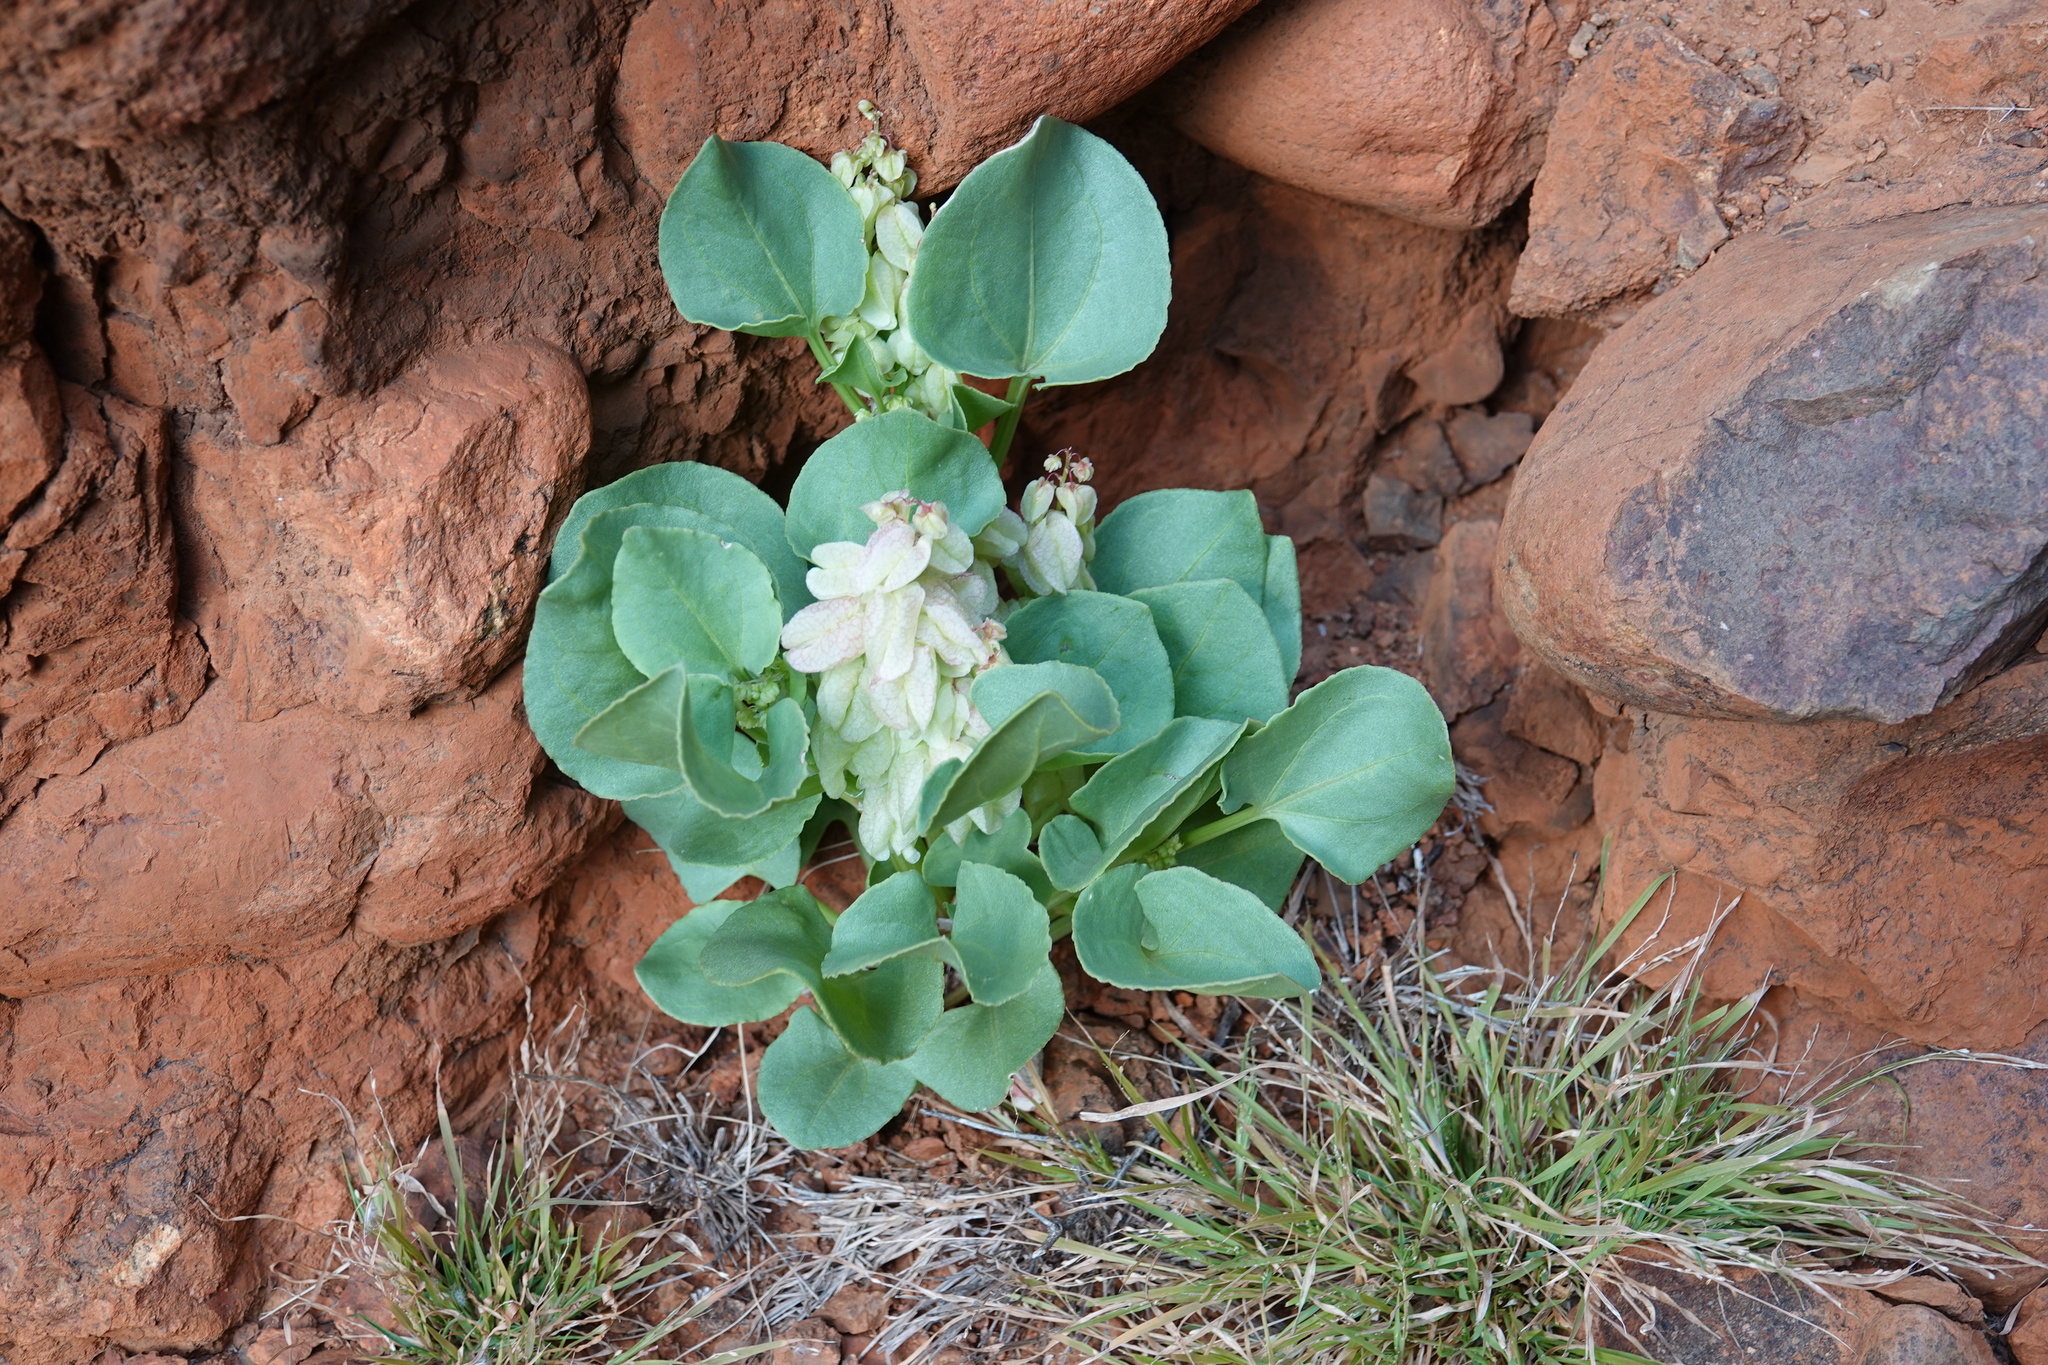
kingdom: Plantae
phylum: Tracheophyta
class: Magnoliopsida
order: Caryophyllales
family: Polygonaceae
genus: Rumex
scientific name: Rumex vesicarius
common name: Bladder dock
